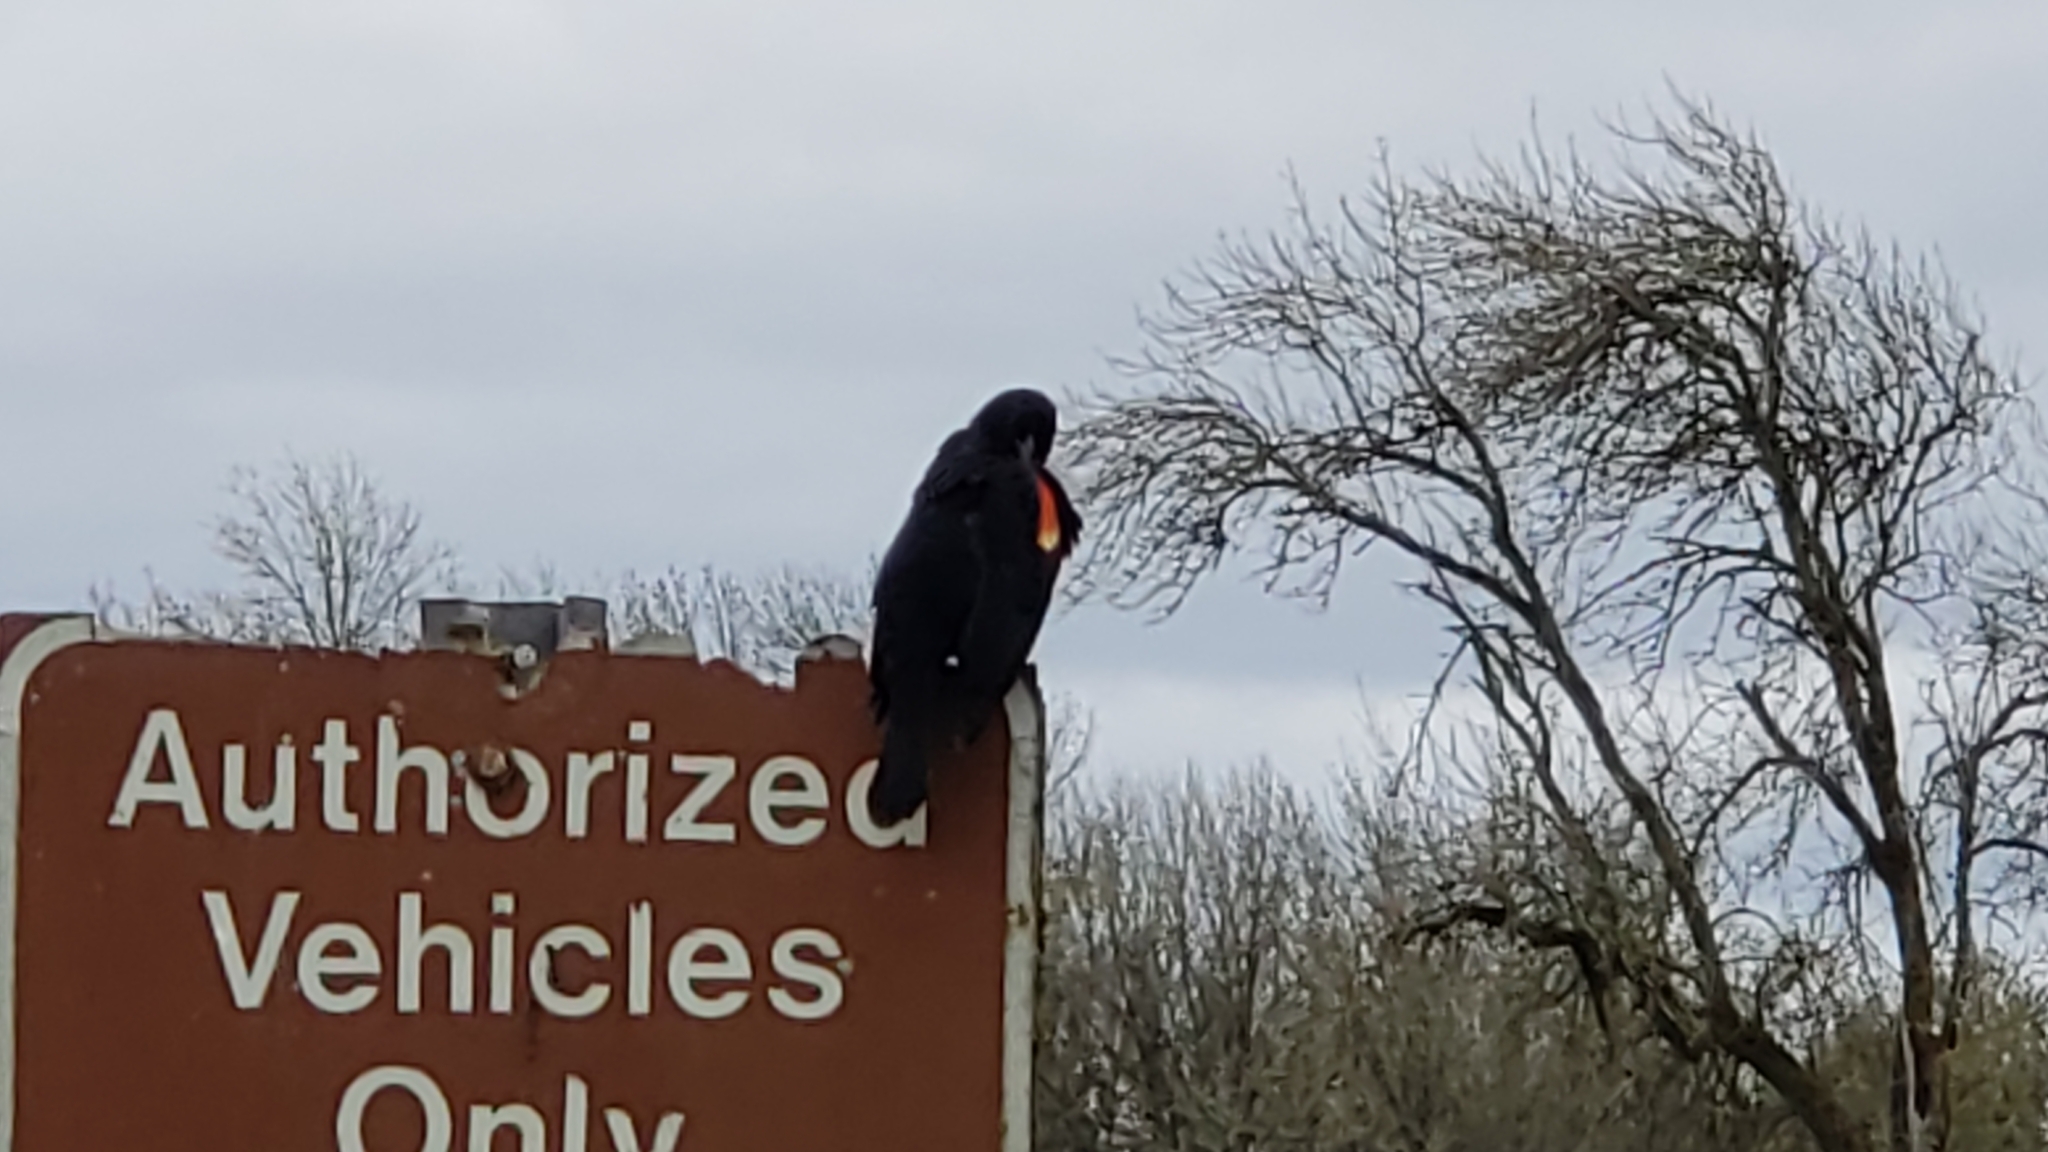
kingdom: Animalia
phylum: Chordata
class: Aves
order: Passeriformes
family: Icteridae
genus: Agelaius
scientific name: Agelaius phoeniceus
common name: Red-winged blackbird
